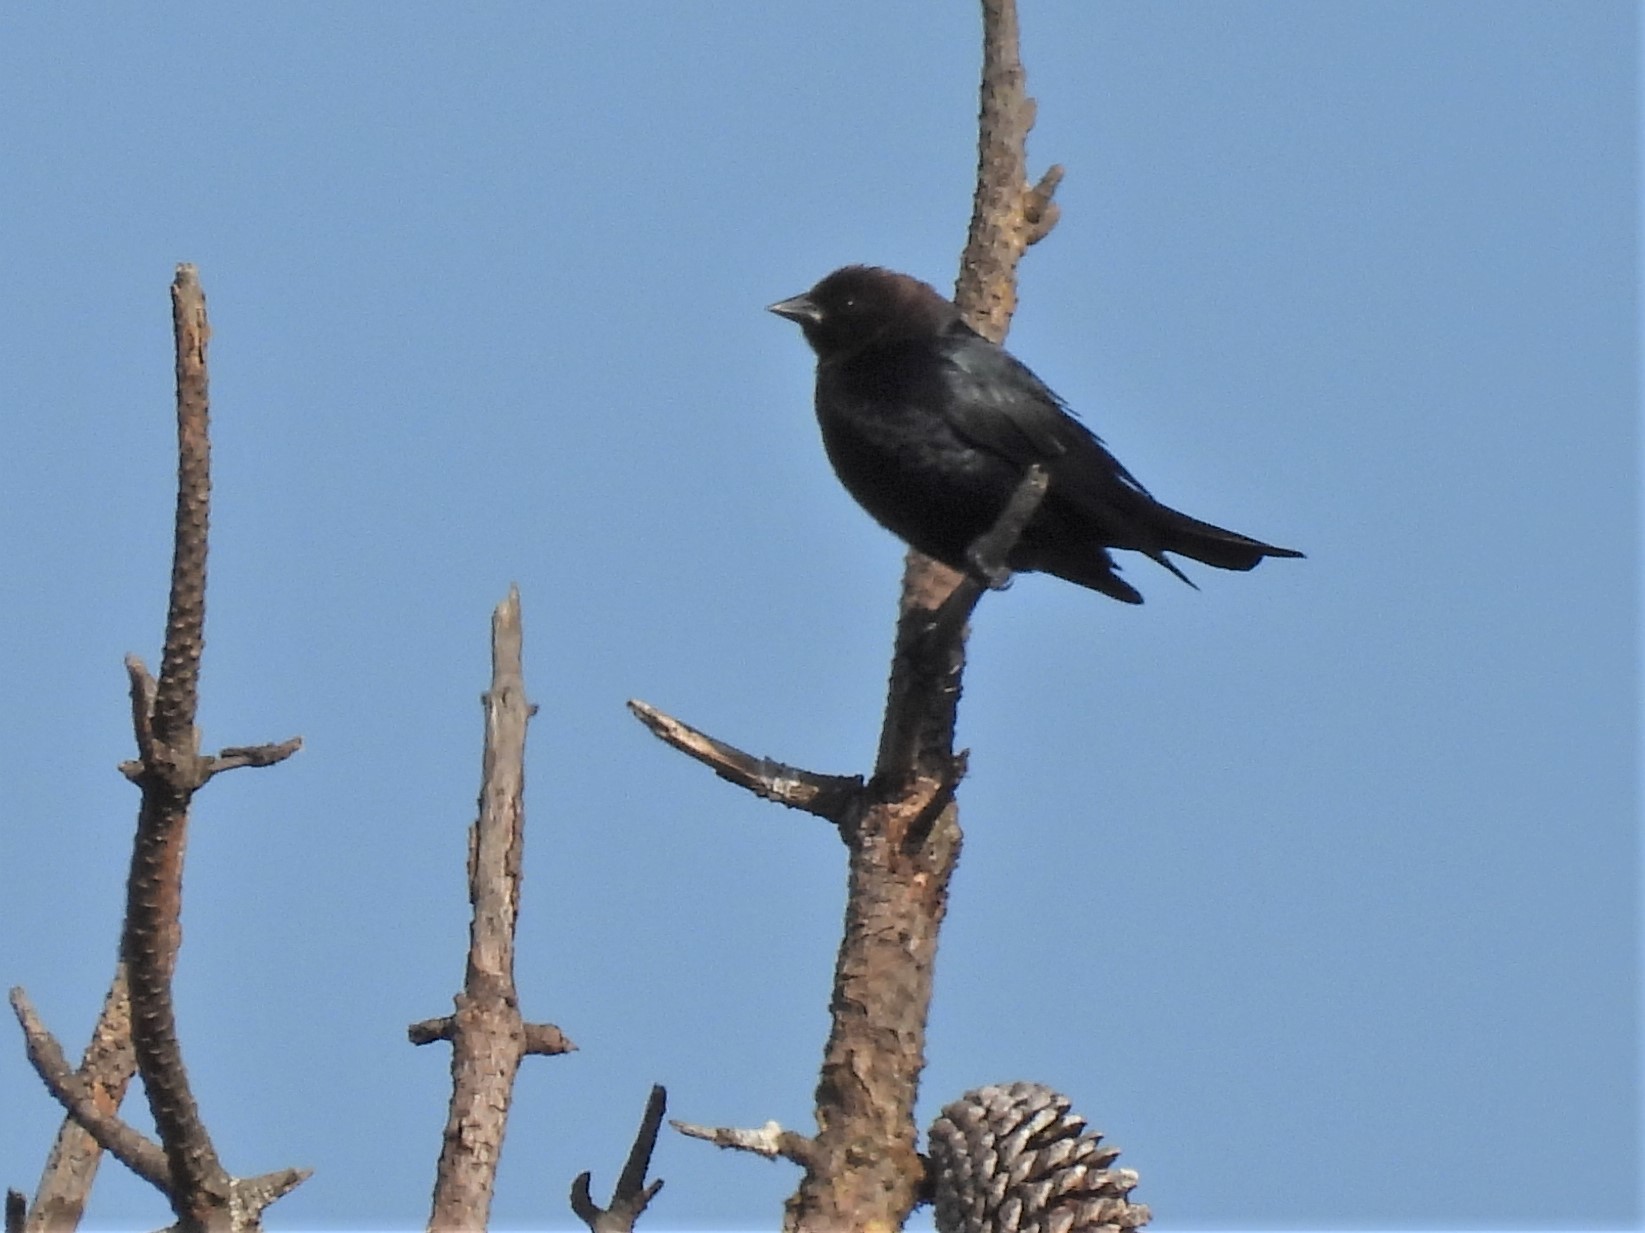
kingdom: Animalia
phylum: Chordata
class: Aves
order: Passeriformes
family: Icteridae
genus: Molothrus
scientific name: Molothrus ater
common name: Brown-headed cowbird
